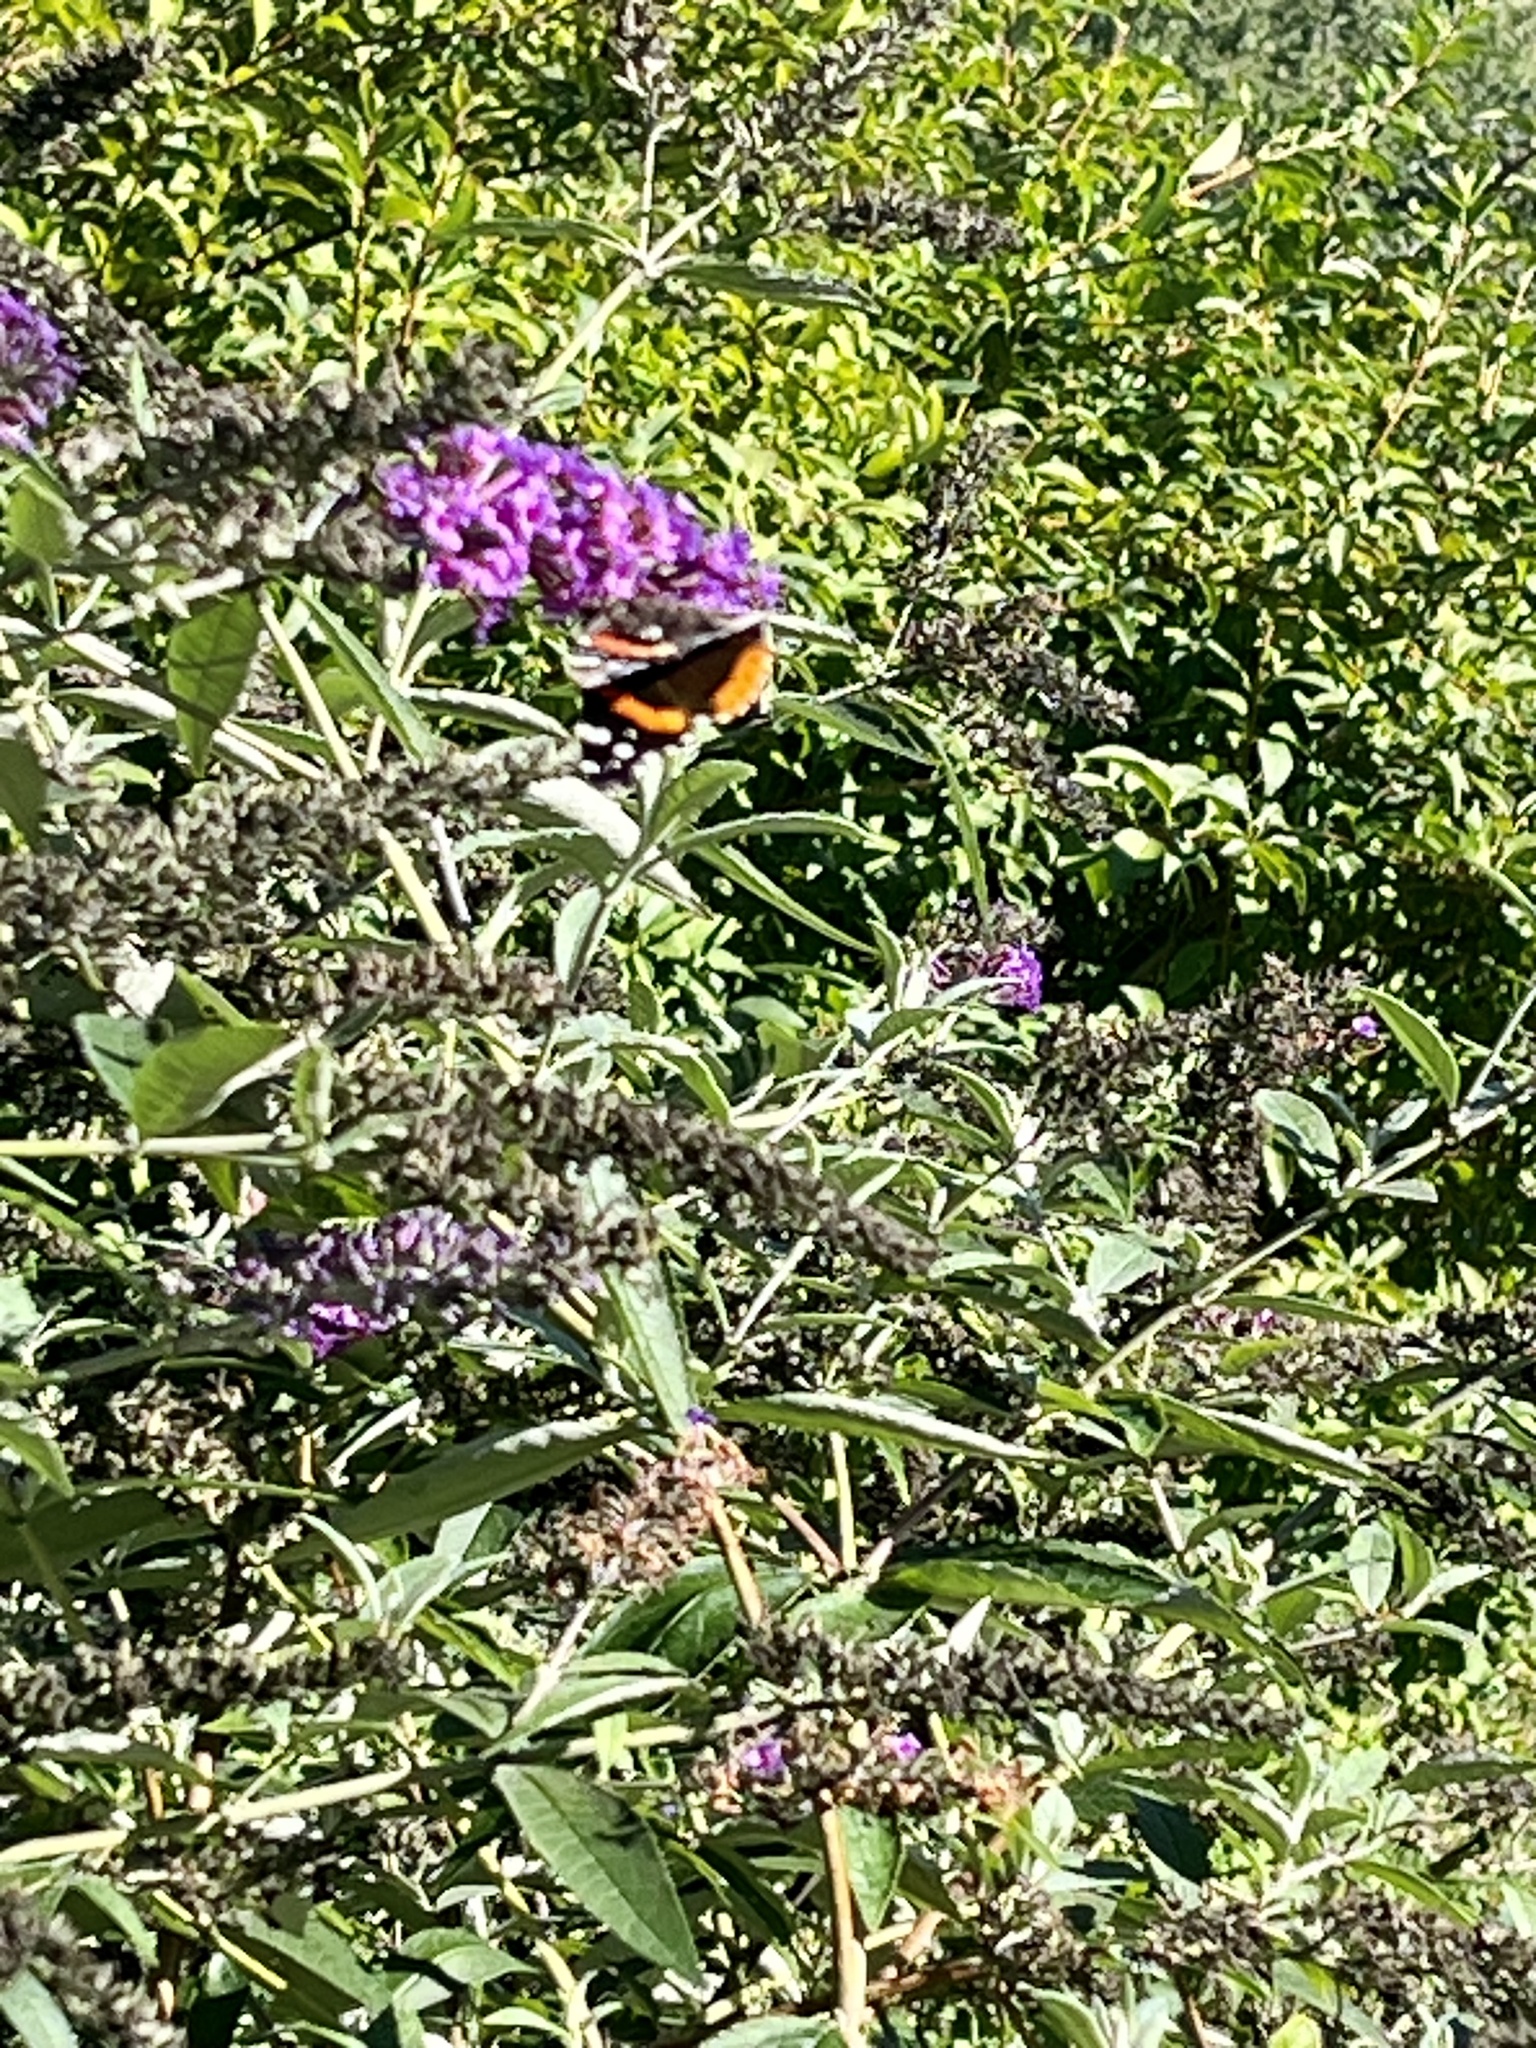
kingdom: Animalia
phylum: Arthropoda
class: Insecta
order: Lepidoptera
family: Nymphalidae
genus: Vanessa
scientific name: Vanessa atalanta
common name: Red admiral
